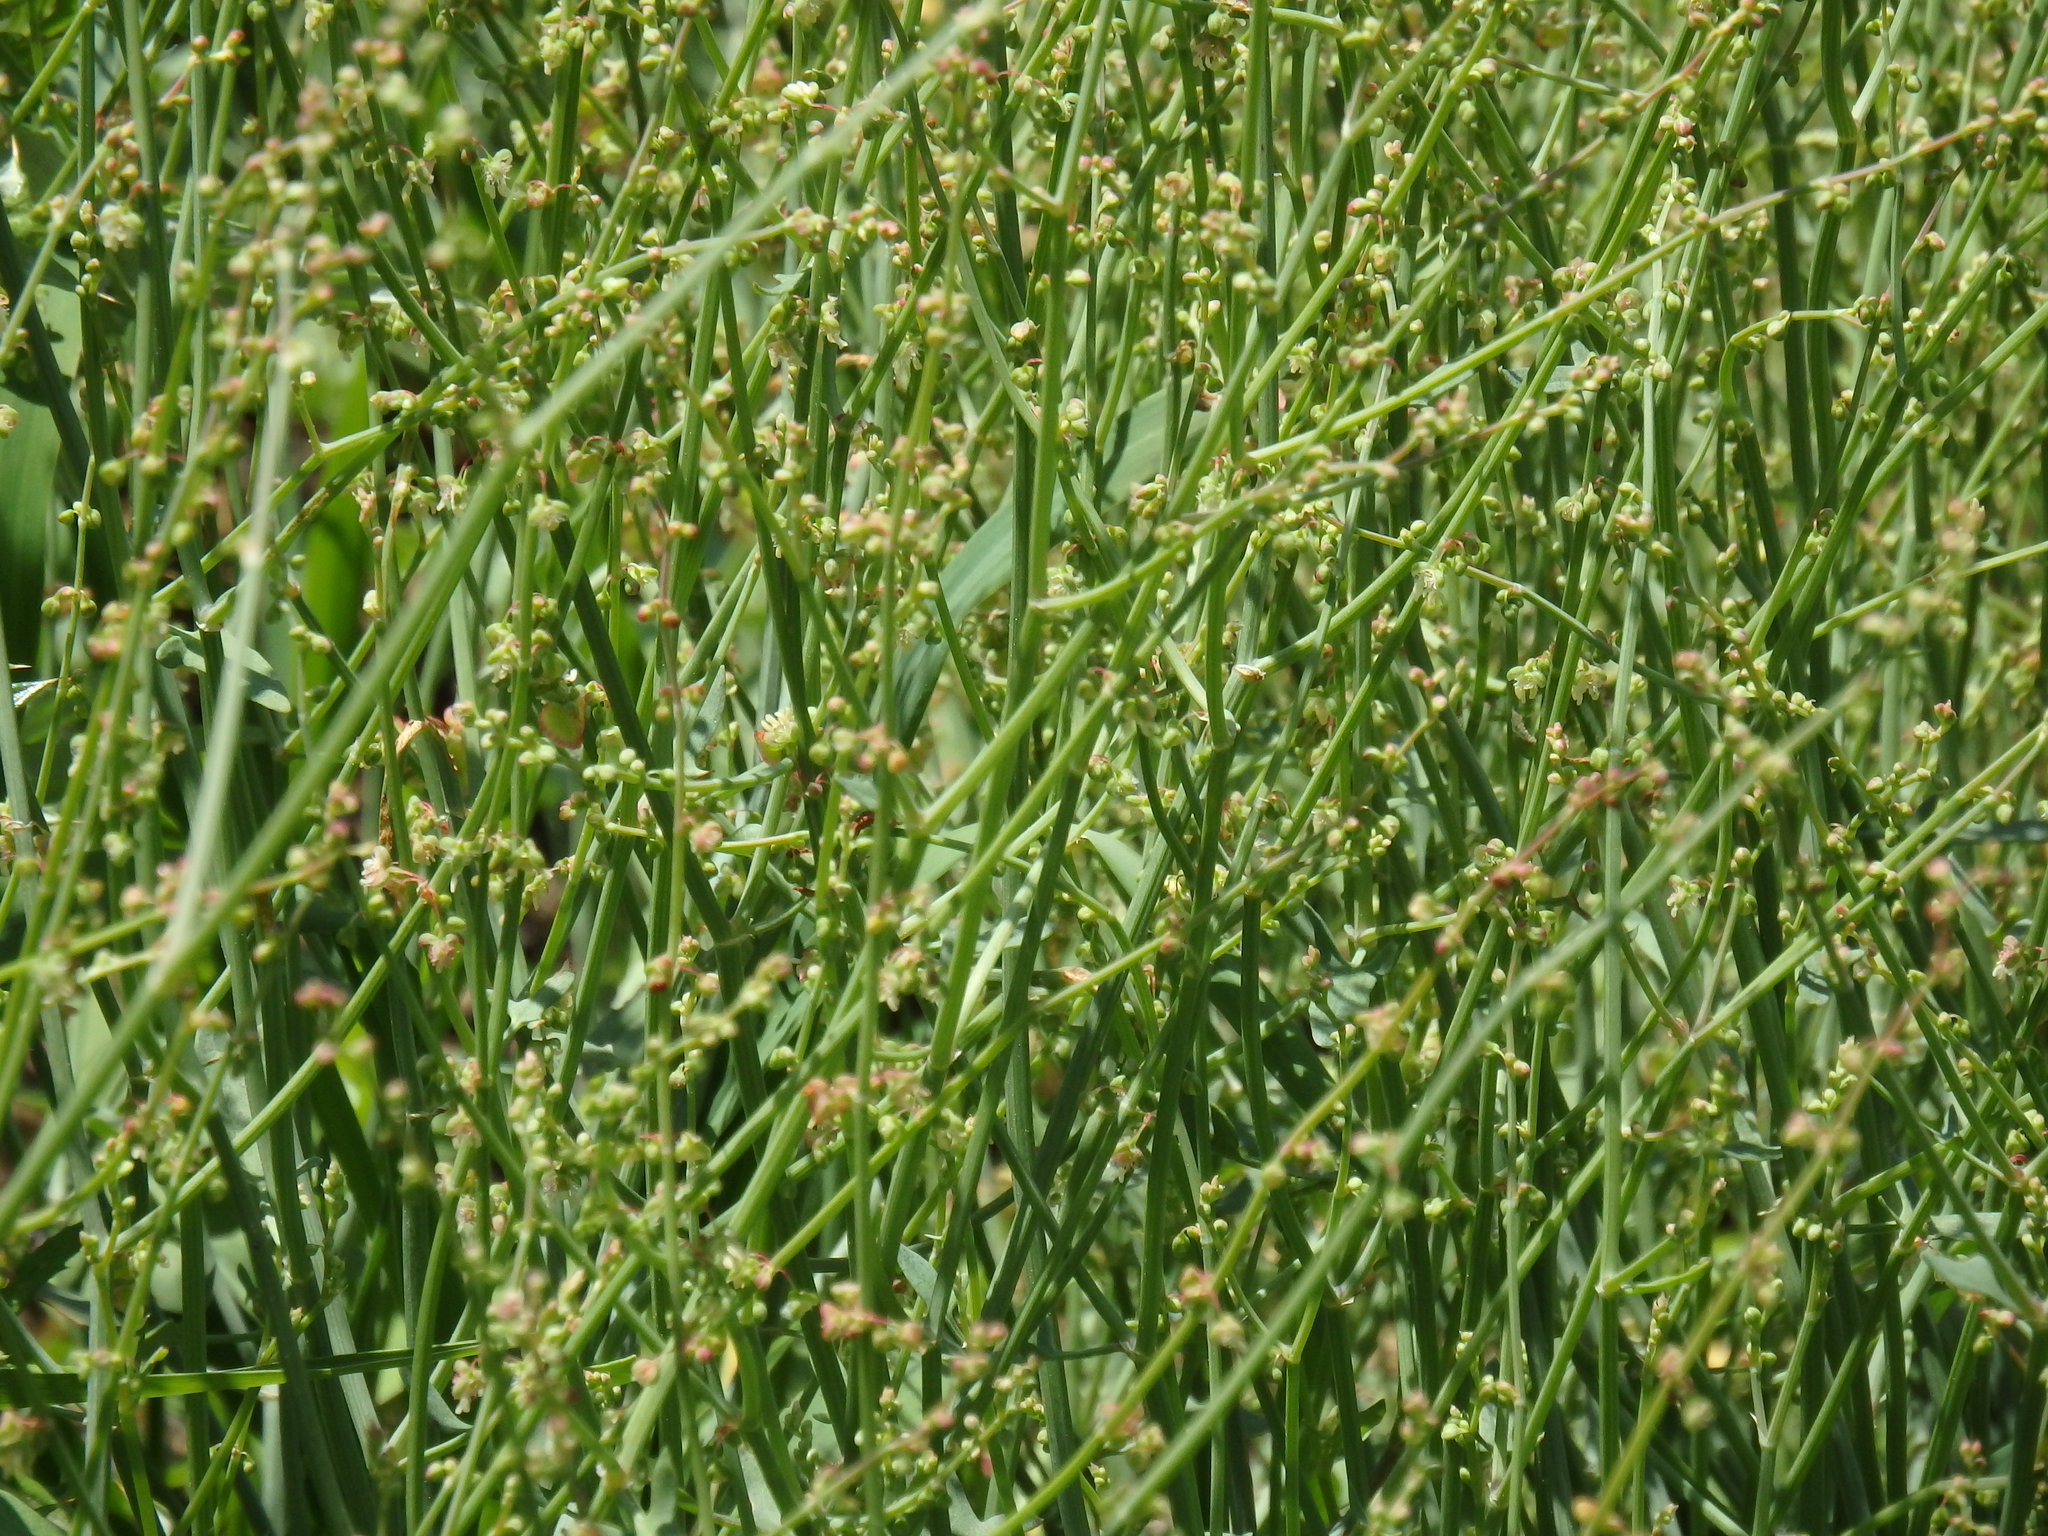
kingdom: Plantae
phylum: Tracheophyta
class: Magnoliopsida
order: Caryophyllales
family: Polygonaceae
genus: Rumex
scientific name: Rumex induratus
